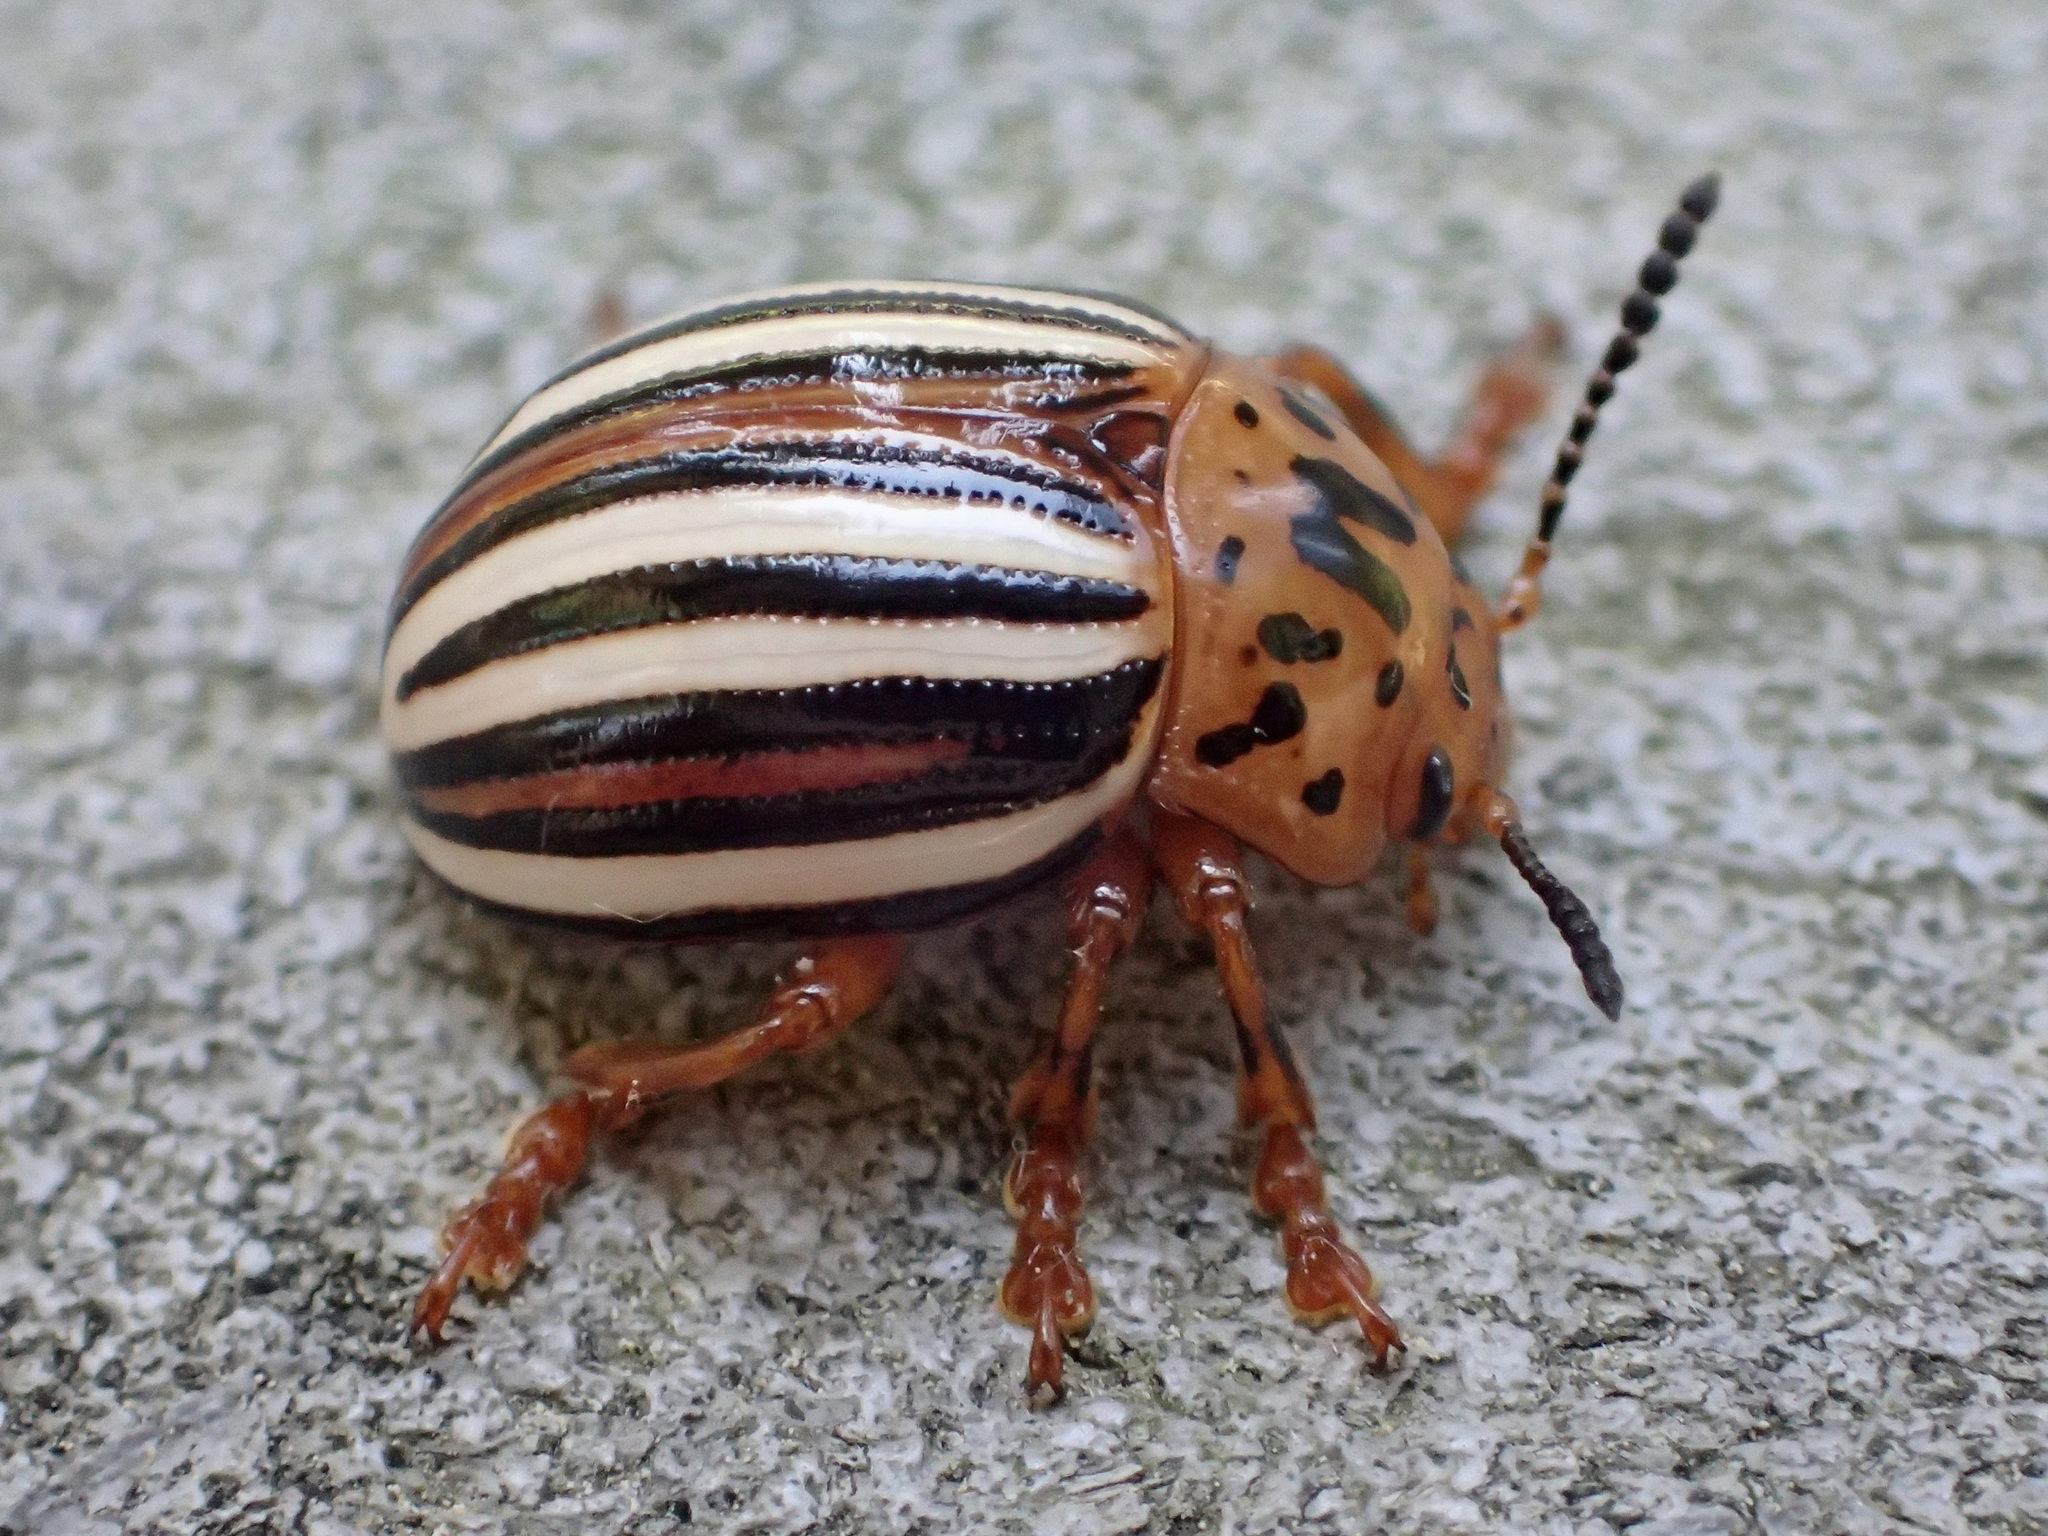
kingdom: Animalia
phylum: Arthropoda
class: Insecta
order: Coleoptera
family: Chrysomelidae
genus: Leptinotarsa
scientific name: Leptinotarsa juncta
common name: False potato beetle
